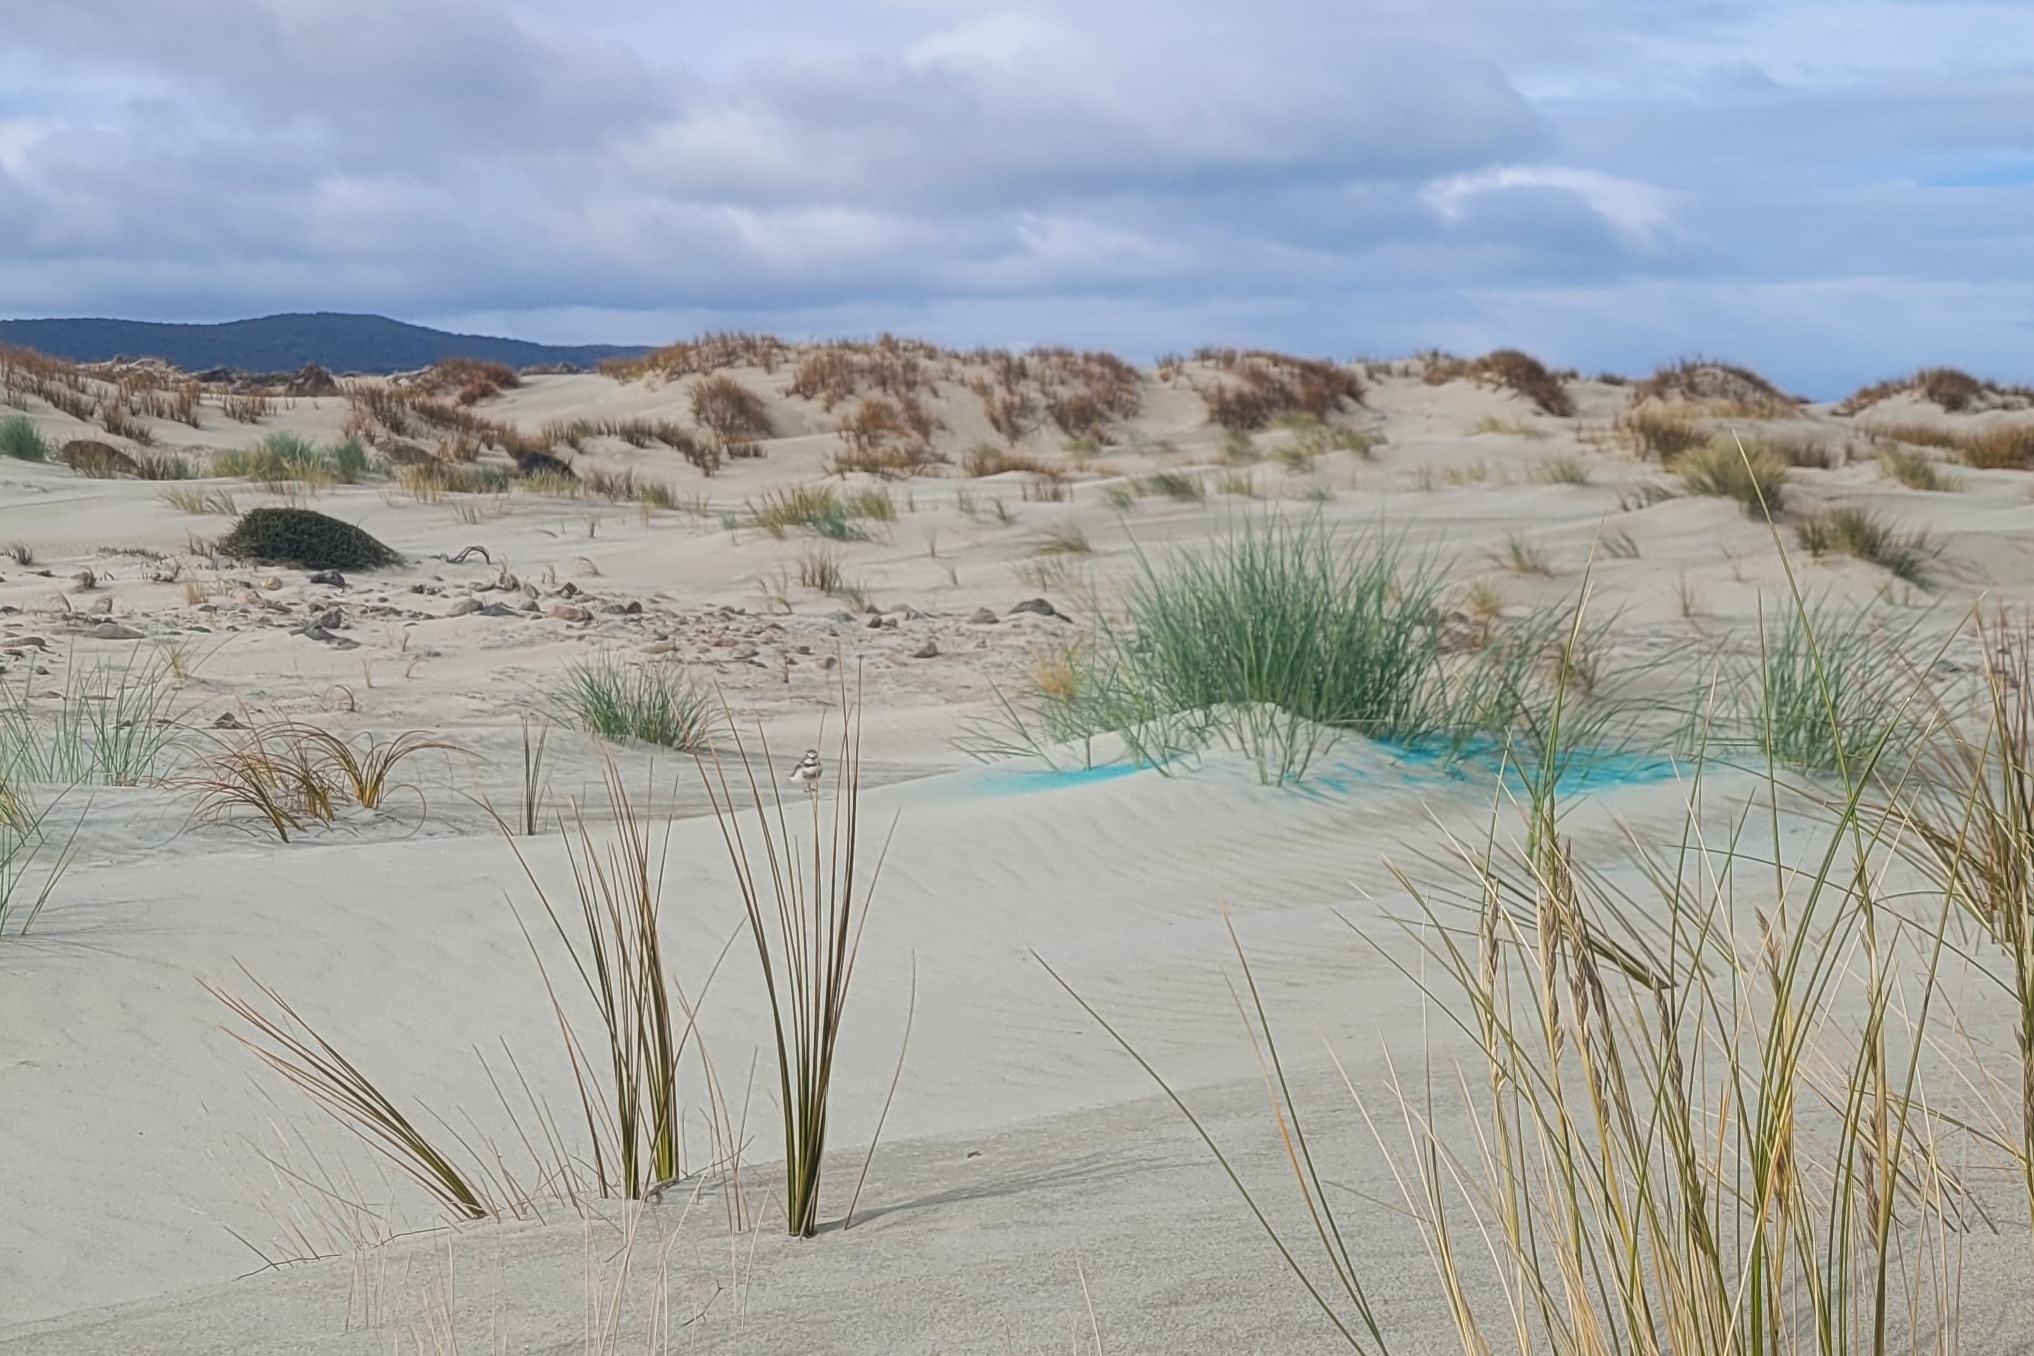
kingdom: Animalia
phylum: Chordata
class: Aves
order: Charadriiformes
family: Charadriidae
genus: Anarhynchus
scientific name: Anarhynchus
